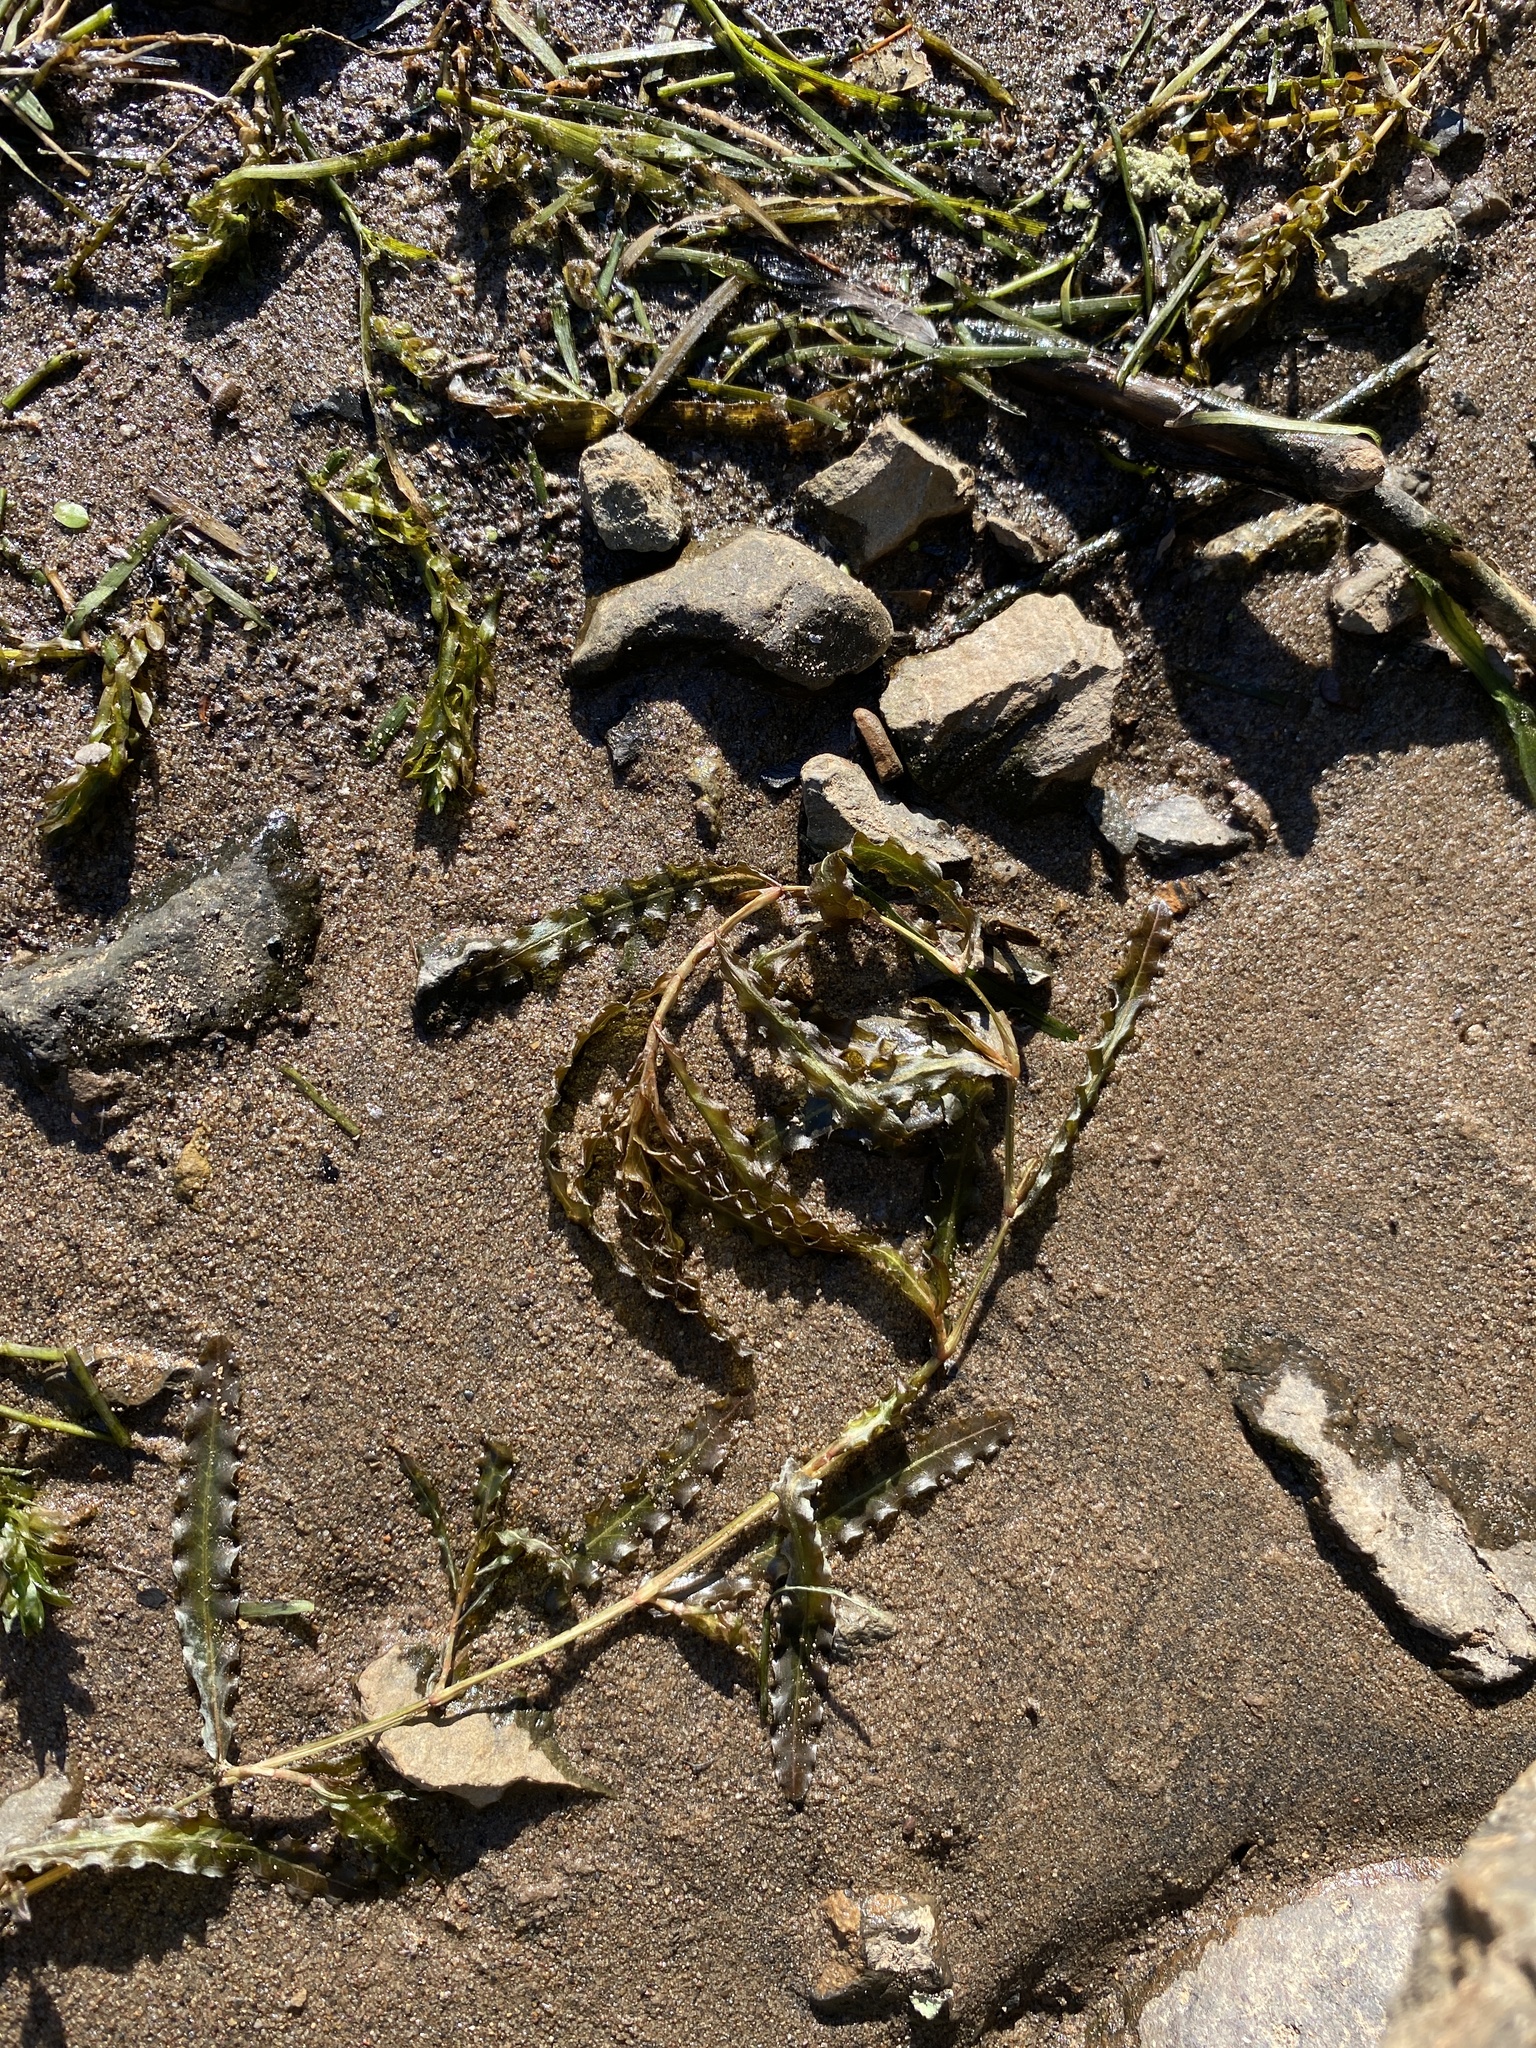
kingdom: Plantae
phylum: Tracheophyta
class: Liliopsida
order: Alismatales
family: Potamogetonaceae
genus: Potamogeton
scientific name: Potamogeton crispus
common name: Curled pondweed
